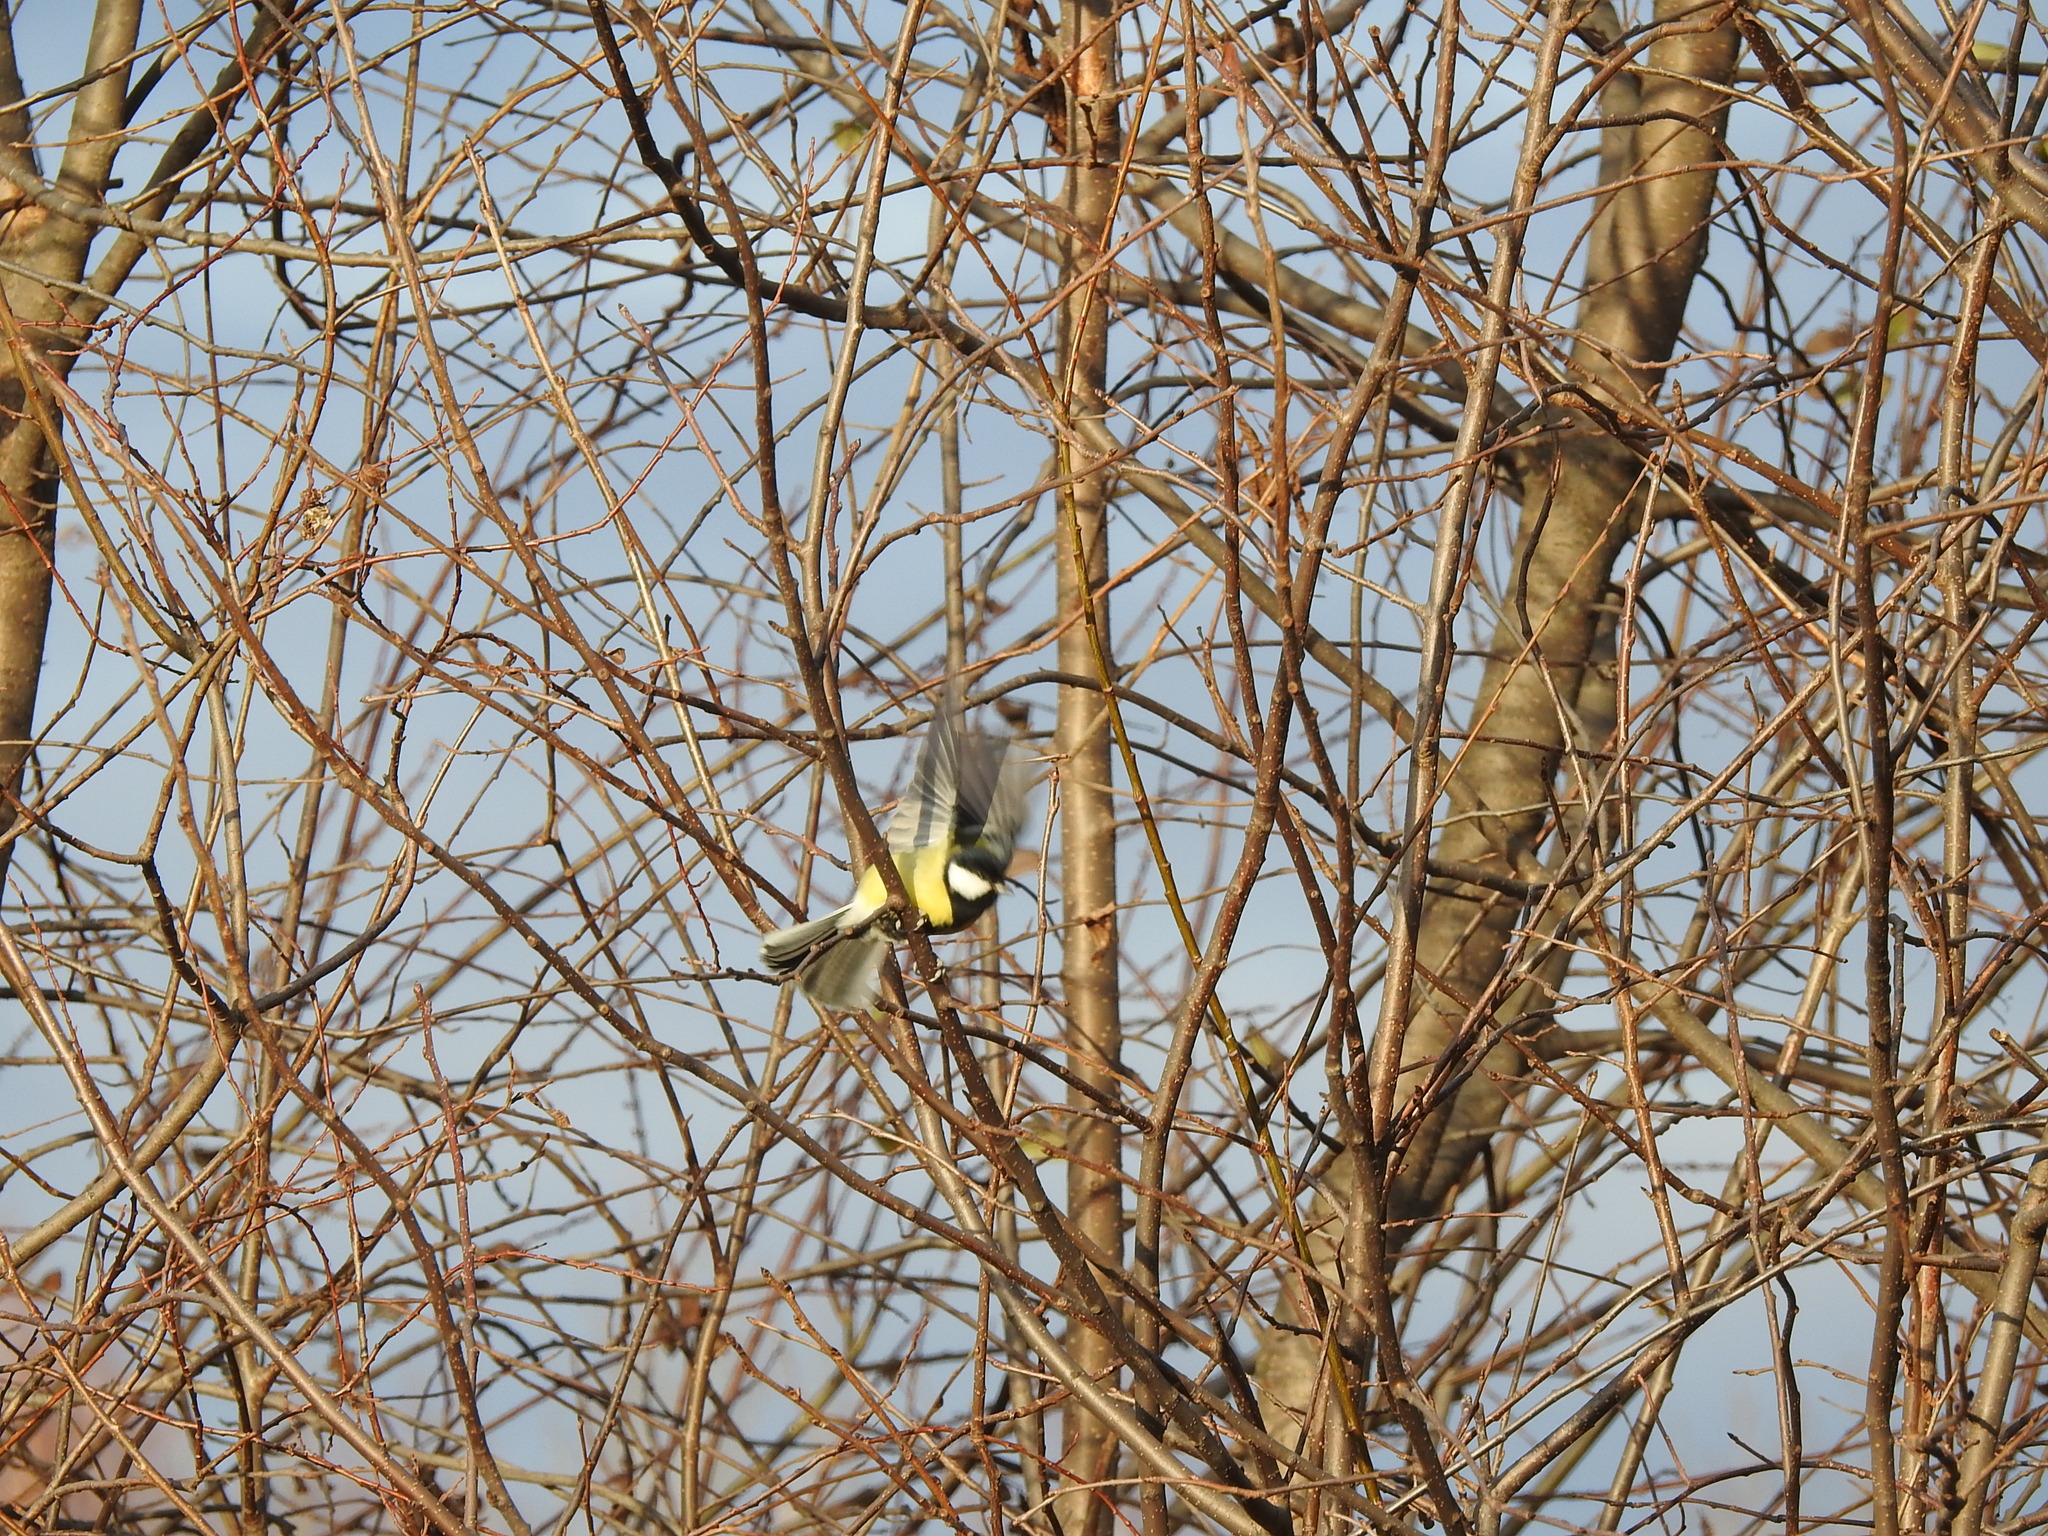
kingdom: Animalia
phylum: Chordata
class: Aves
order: Passeriformes
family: Paridae
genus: Parus
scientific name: Parus major
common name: Great tit
